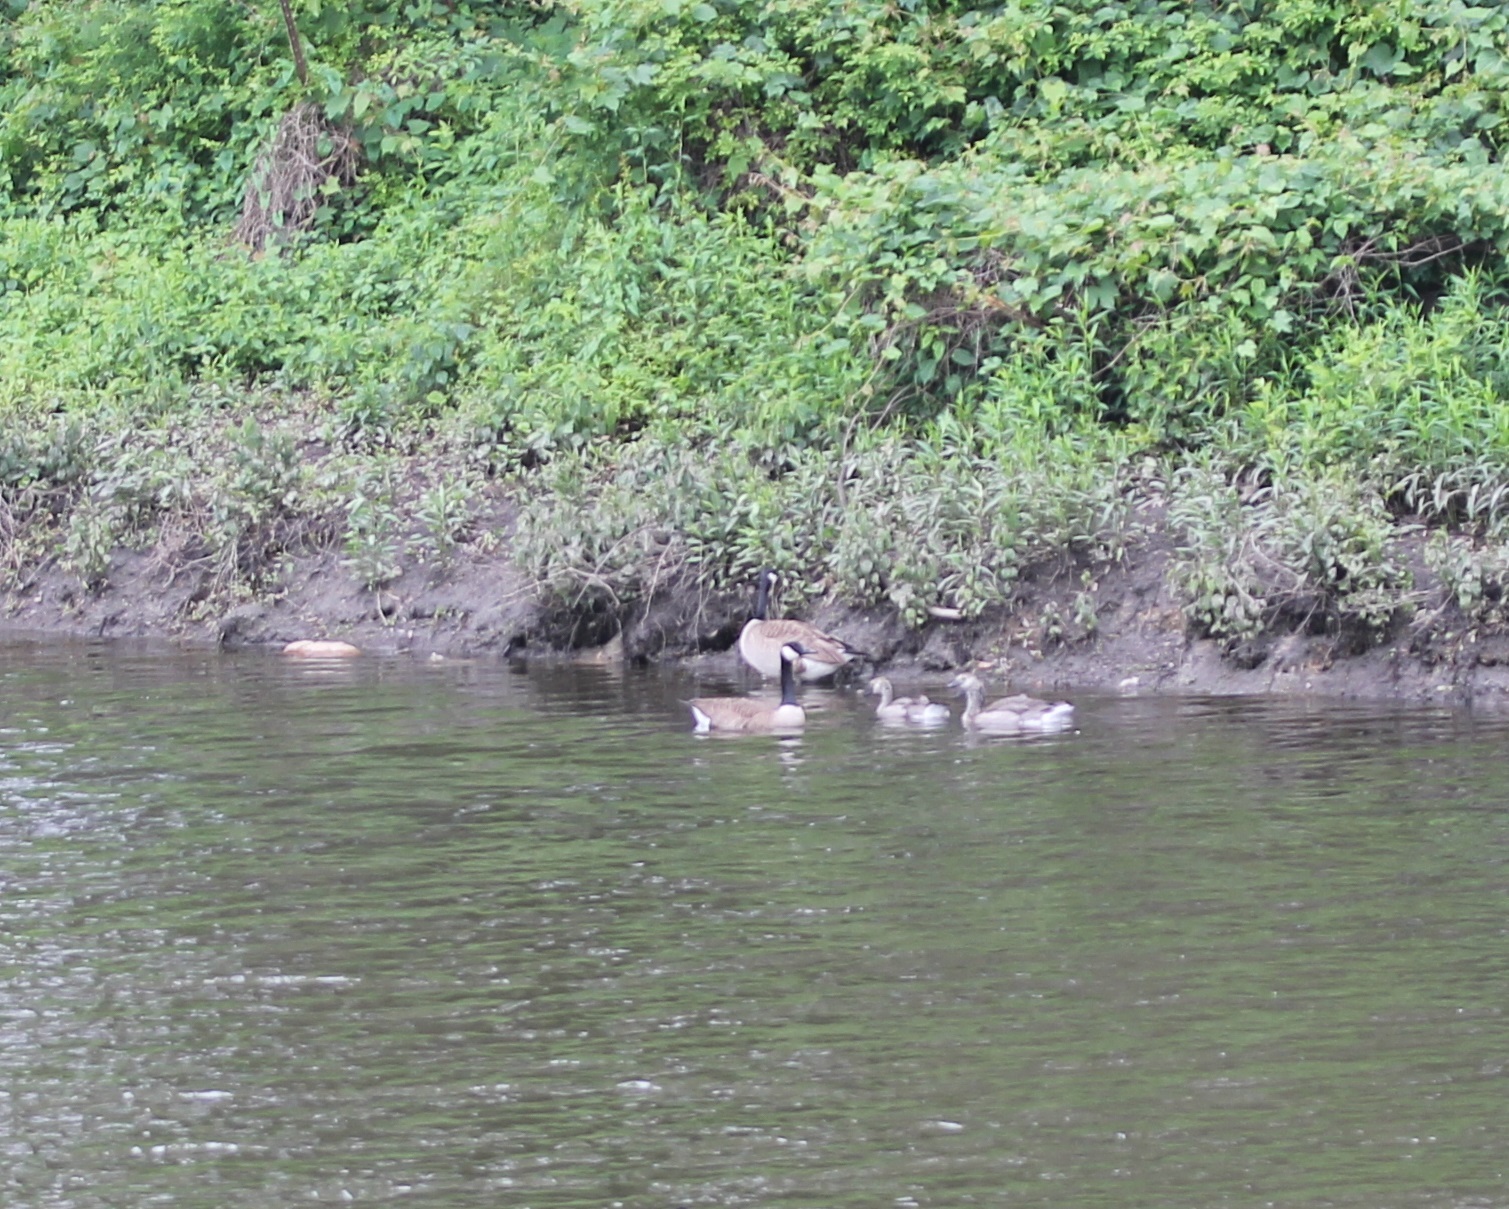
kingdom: Animalia
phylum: Chordata
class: Aves
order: Anseriformes
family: Anatidae
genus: Branta
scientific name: Branta canadensis
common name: Canada goose
